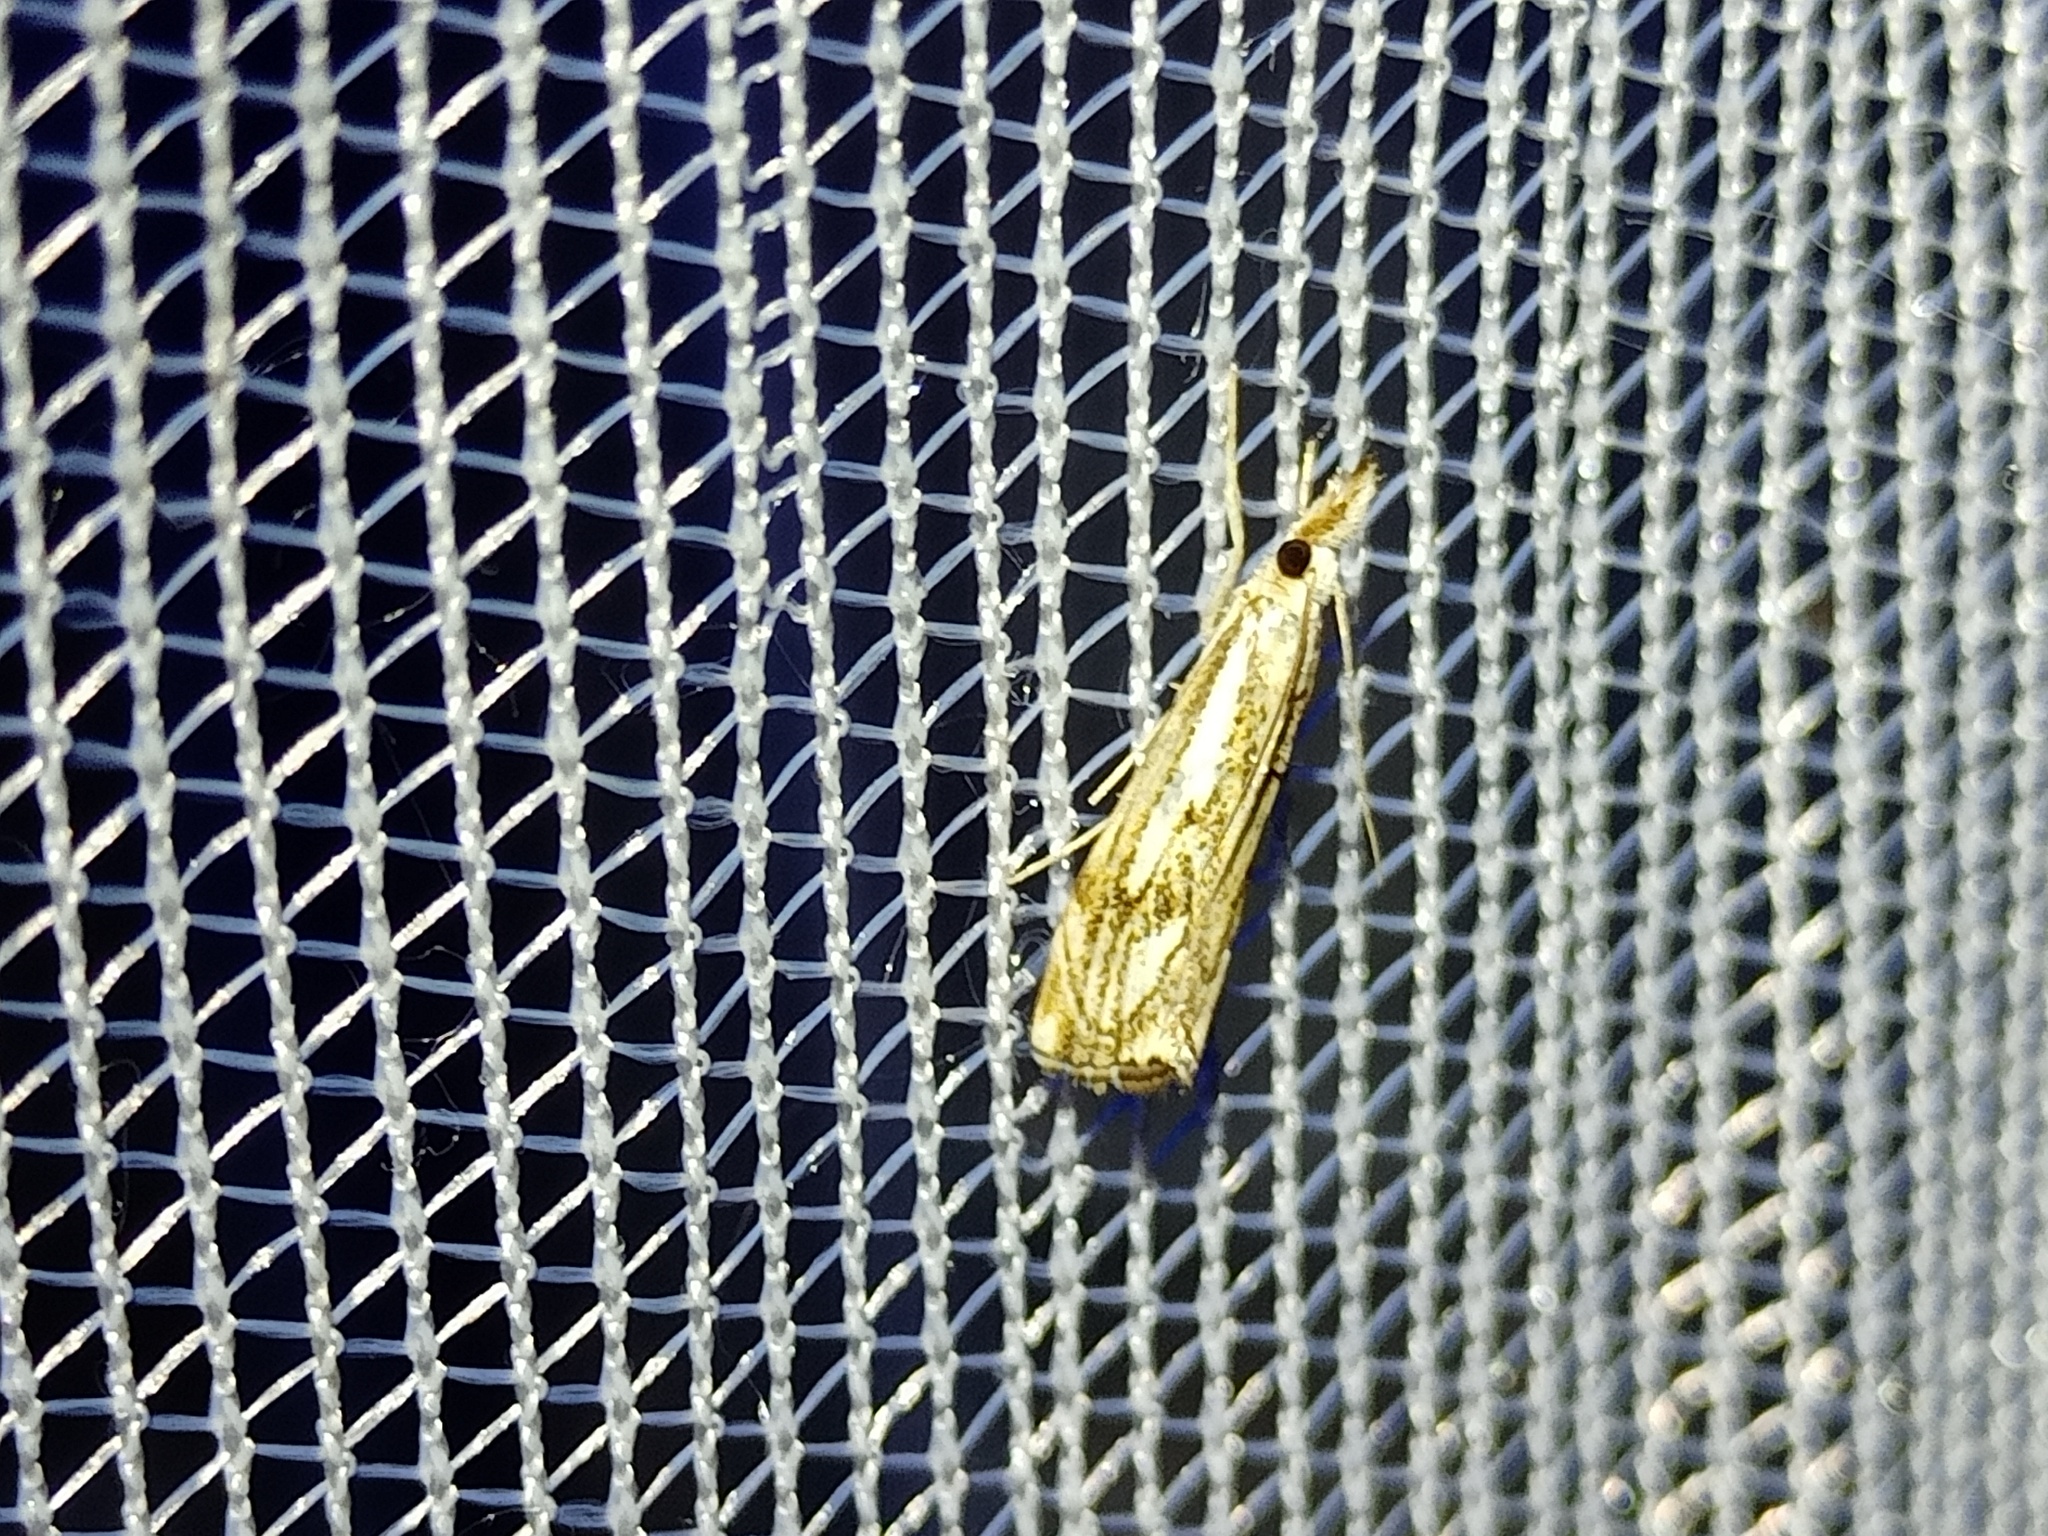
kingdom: Animalia
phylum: Arthropoda
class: Insecta
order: Lepidoptera
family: Crambidae
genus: Catoptria
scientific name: Catoptria falsella
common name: Chequered grass-veneer
